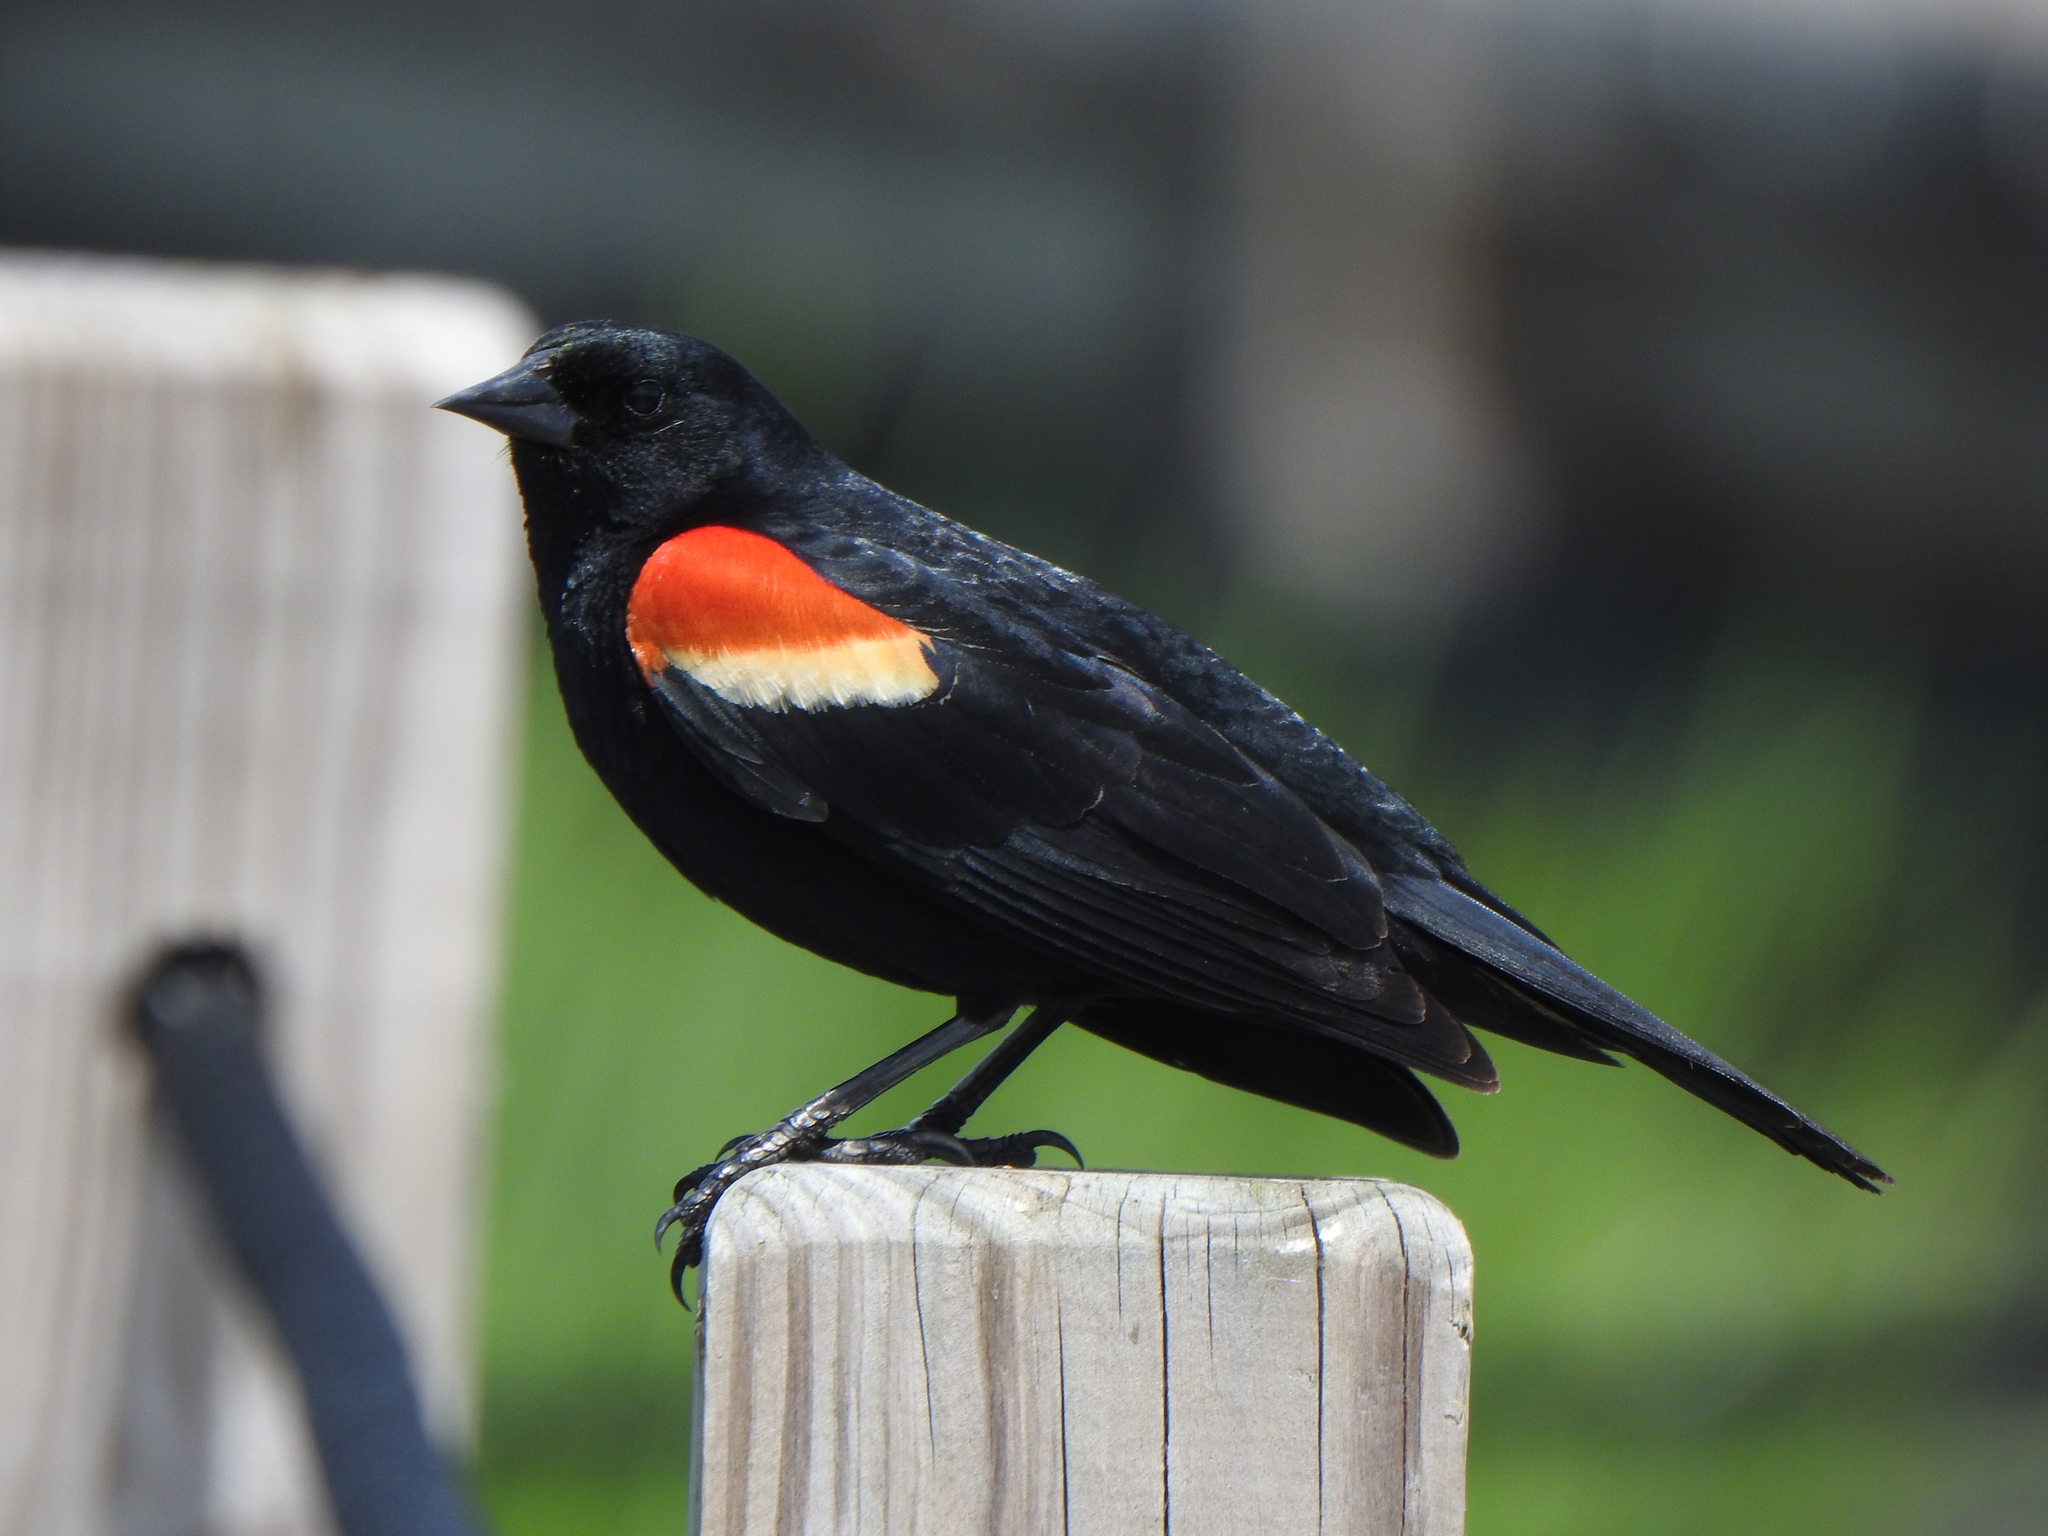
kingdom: Animalia
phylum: Chordata
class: Aves
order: Passeriformes
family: Icteridae
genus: Agelaius
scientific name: Agelaius phoeniceus
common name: Red-winged blackbird
